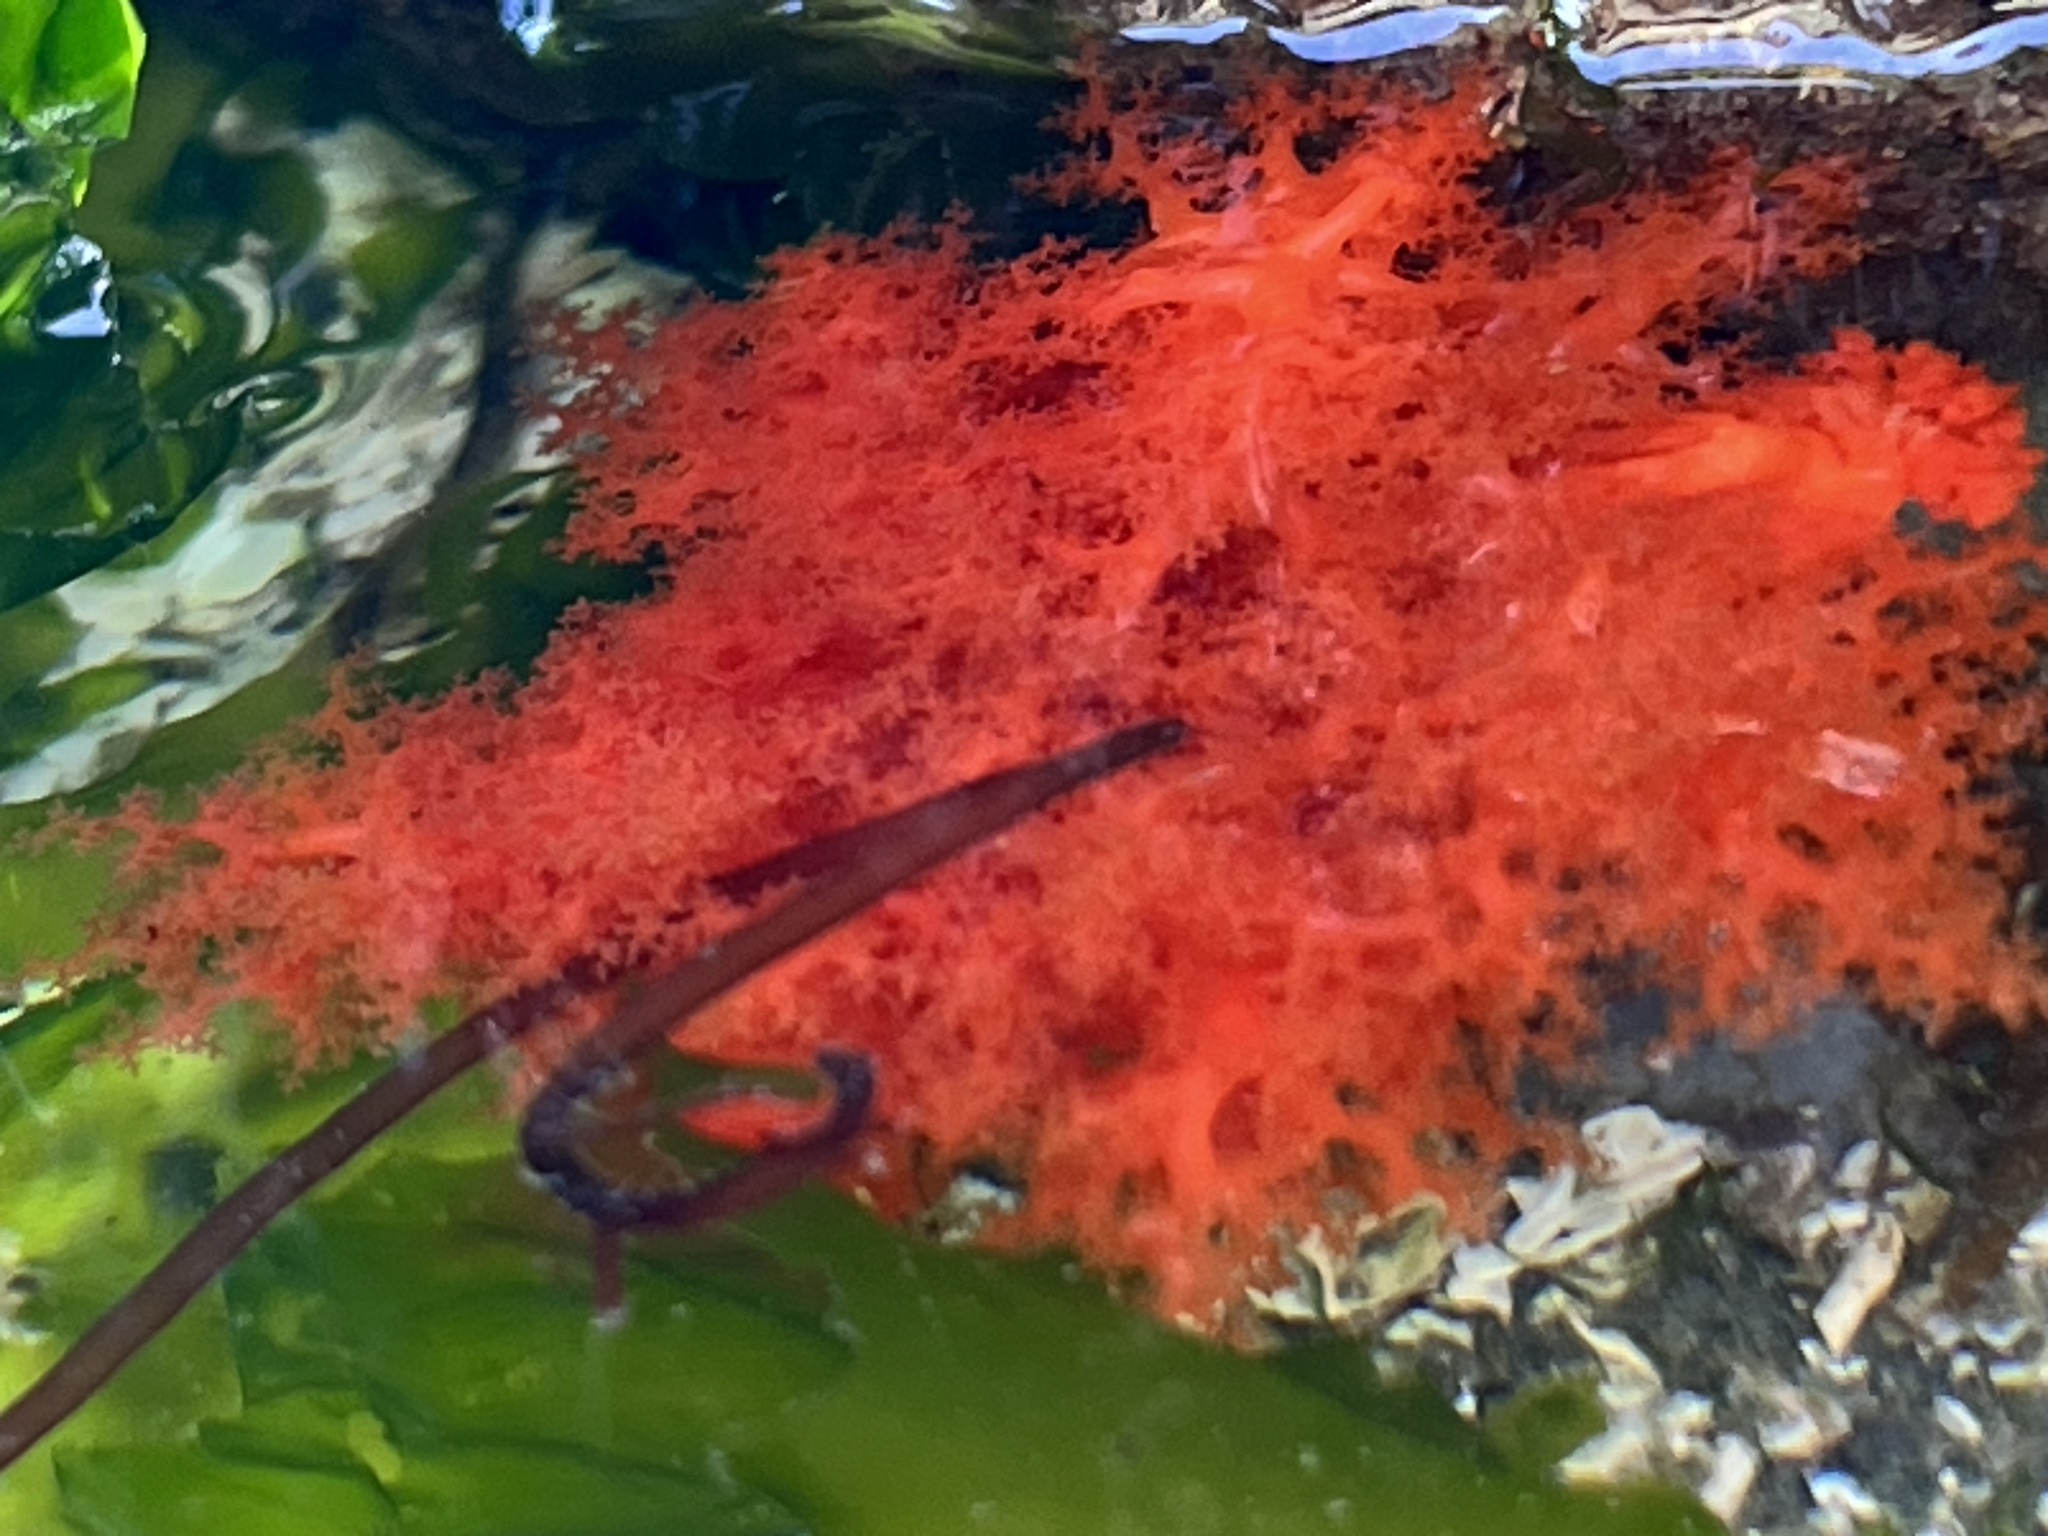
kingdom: Animalia
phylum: Echinodermata
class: Holothuroidea
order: Dendrochirotida
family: Cucumariidae
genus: Cucumaria
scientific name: Cucumaria miniata
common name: Orange sea cucumber
